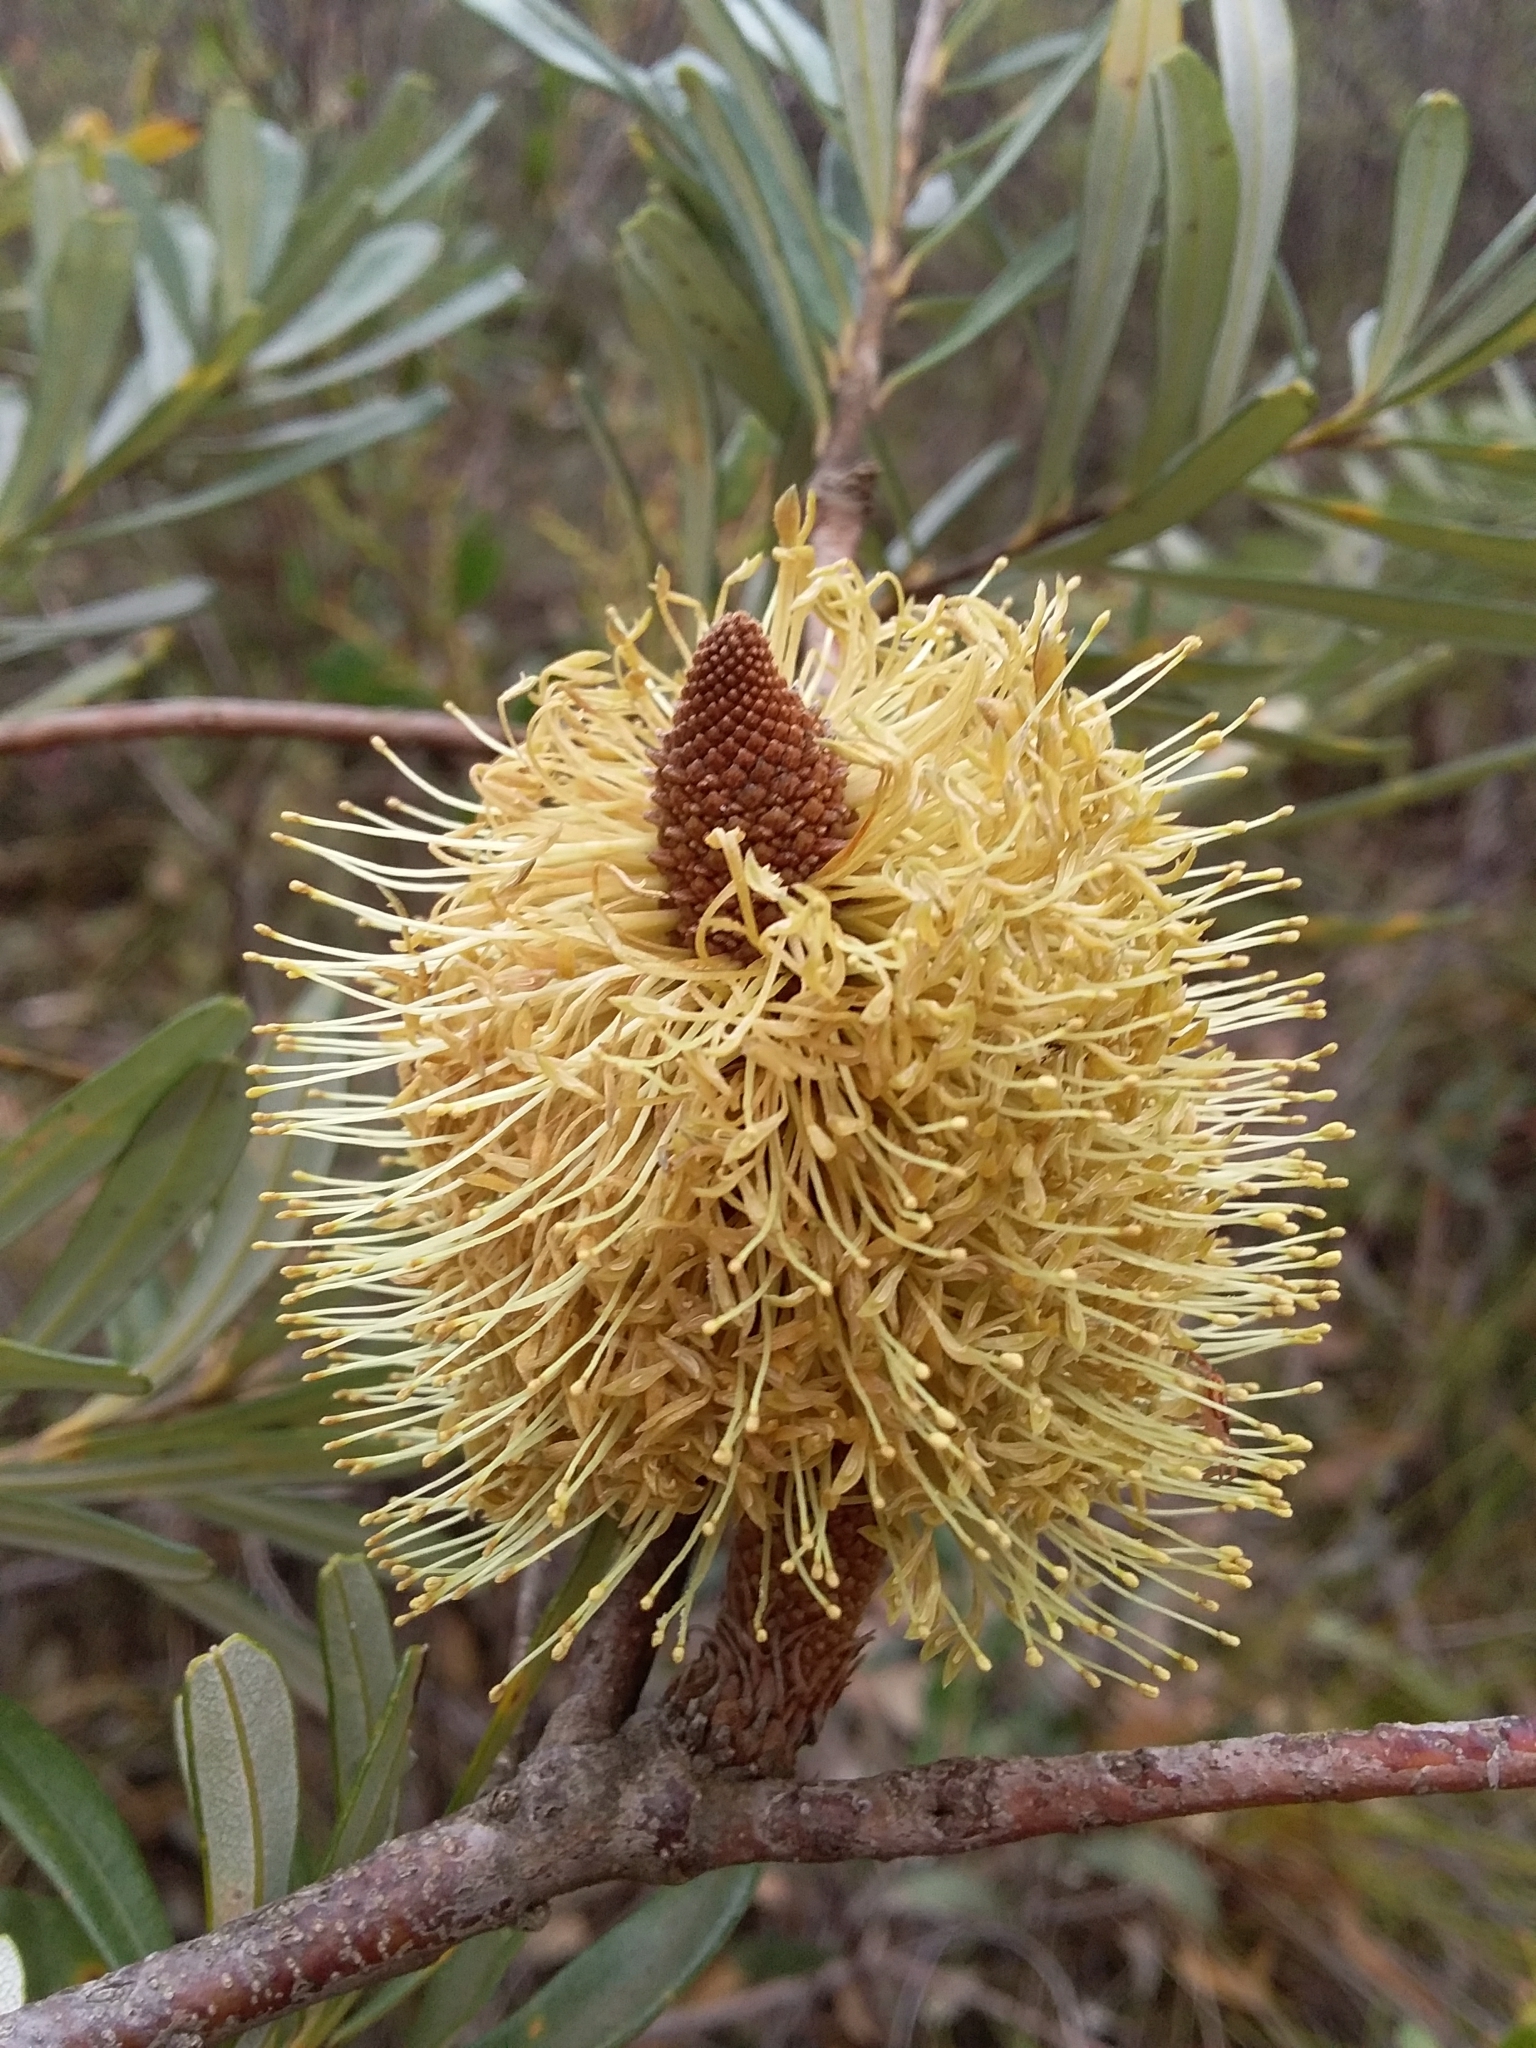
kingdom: Plantae
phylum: Tracheophyta
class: Magnoliopsida
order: Proteales
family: Proteaceae
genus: Banksia
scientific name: Banksia marginata
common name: Silver banksia
